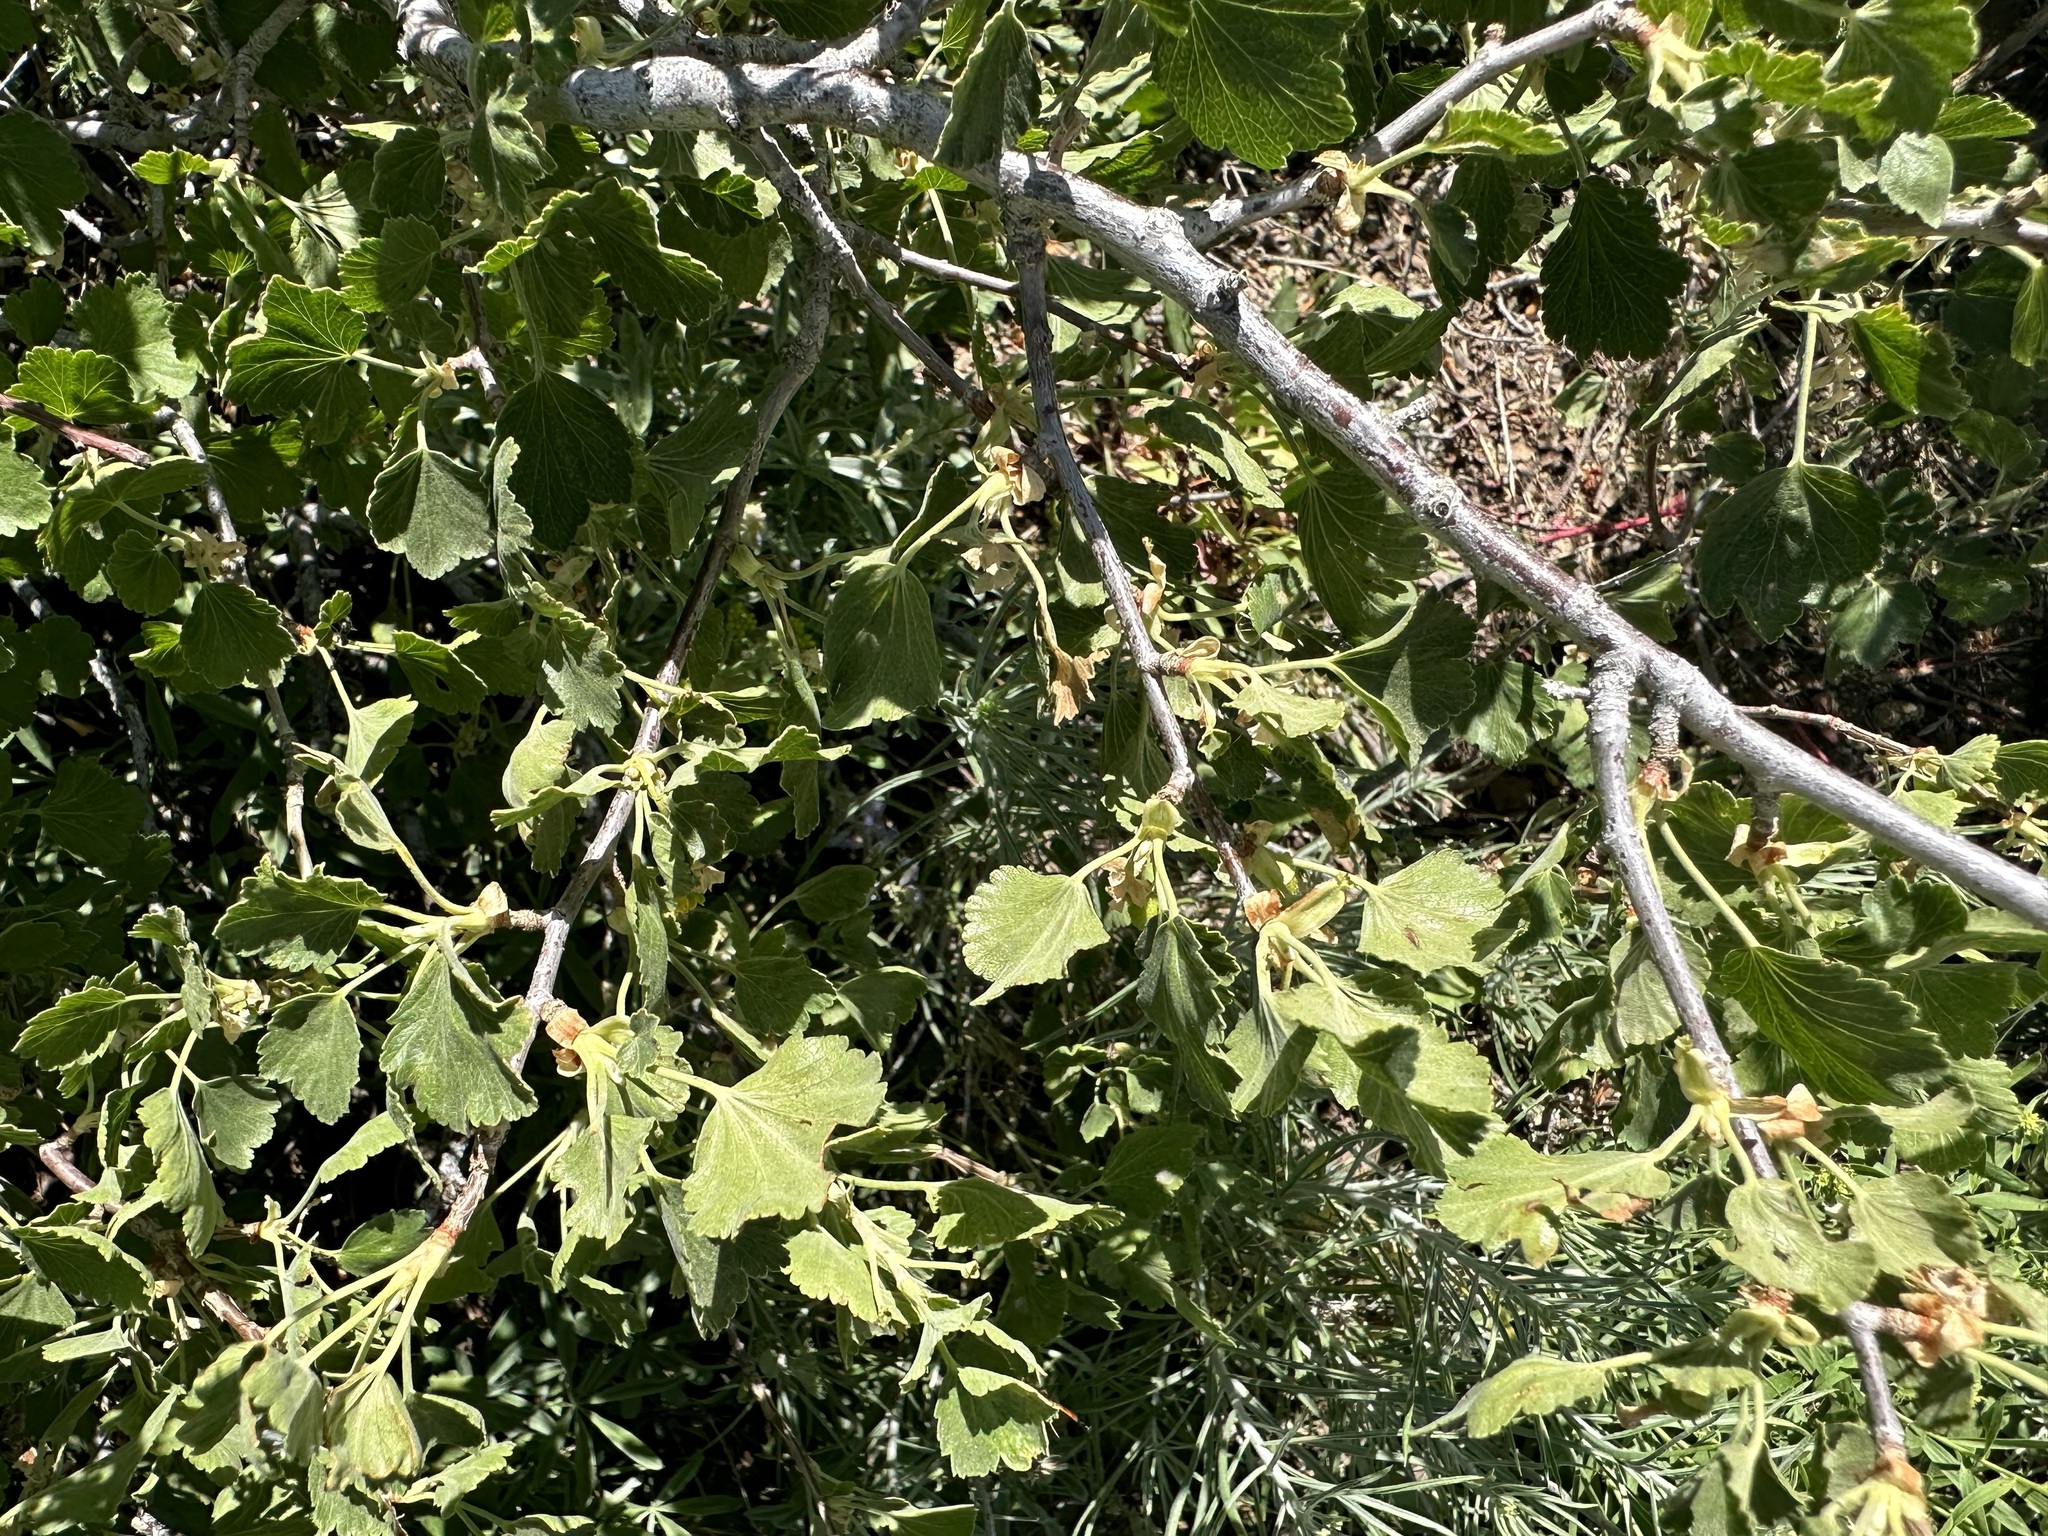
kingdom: Plantae
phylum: Tracheophyta
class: Magnoliopsida
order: Saxifragales
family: Grossulariaceae
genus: Ribes
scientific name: Ribes cereum
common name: Wax currant
